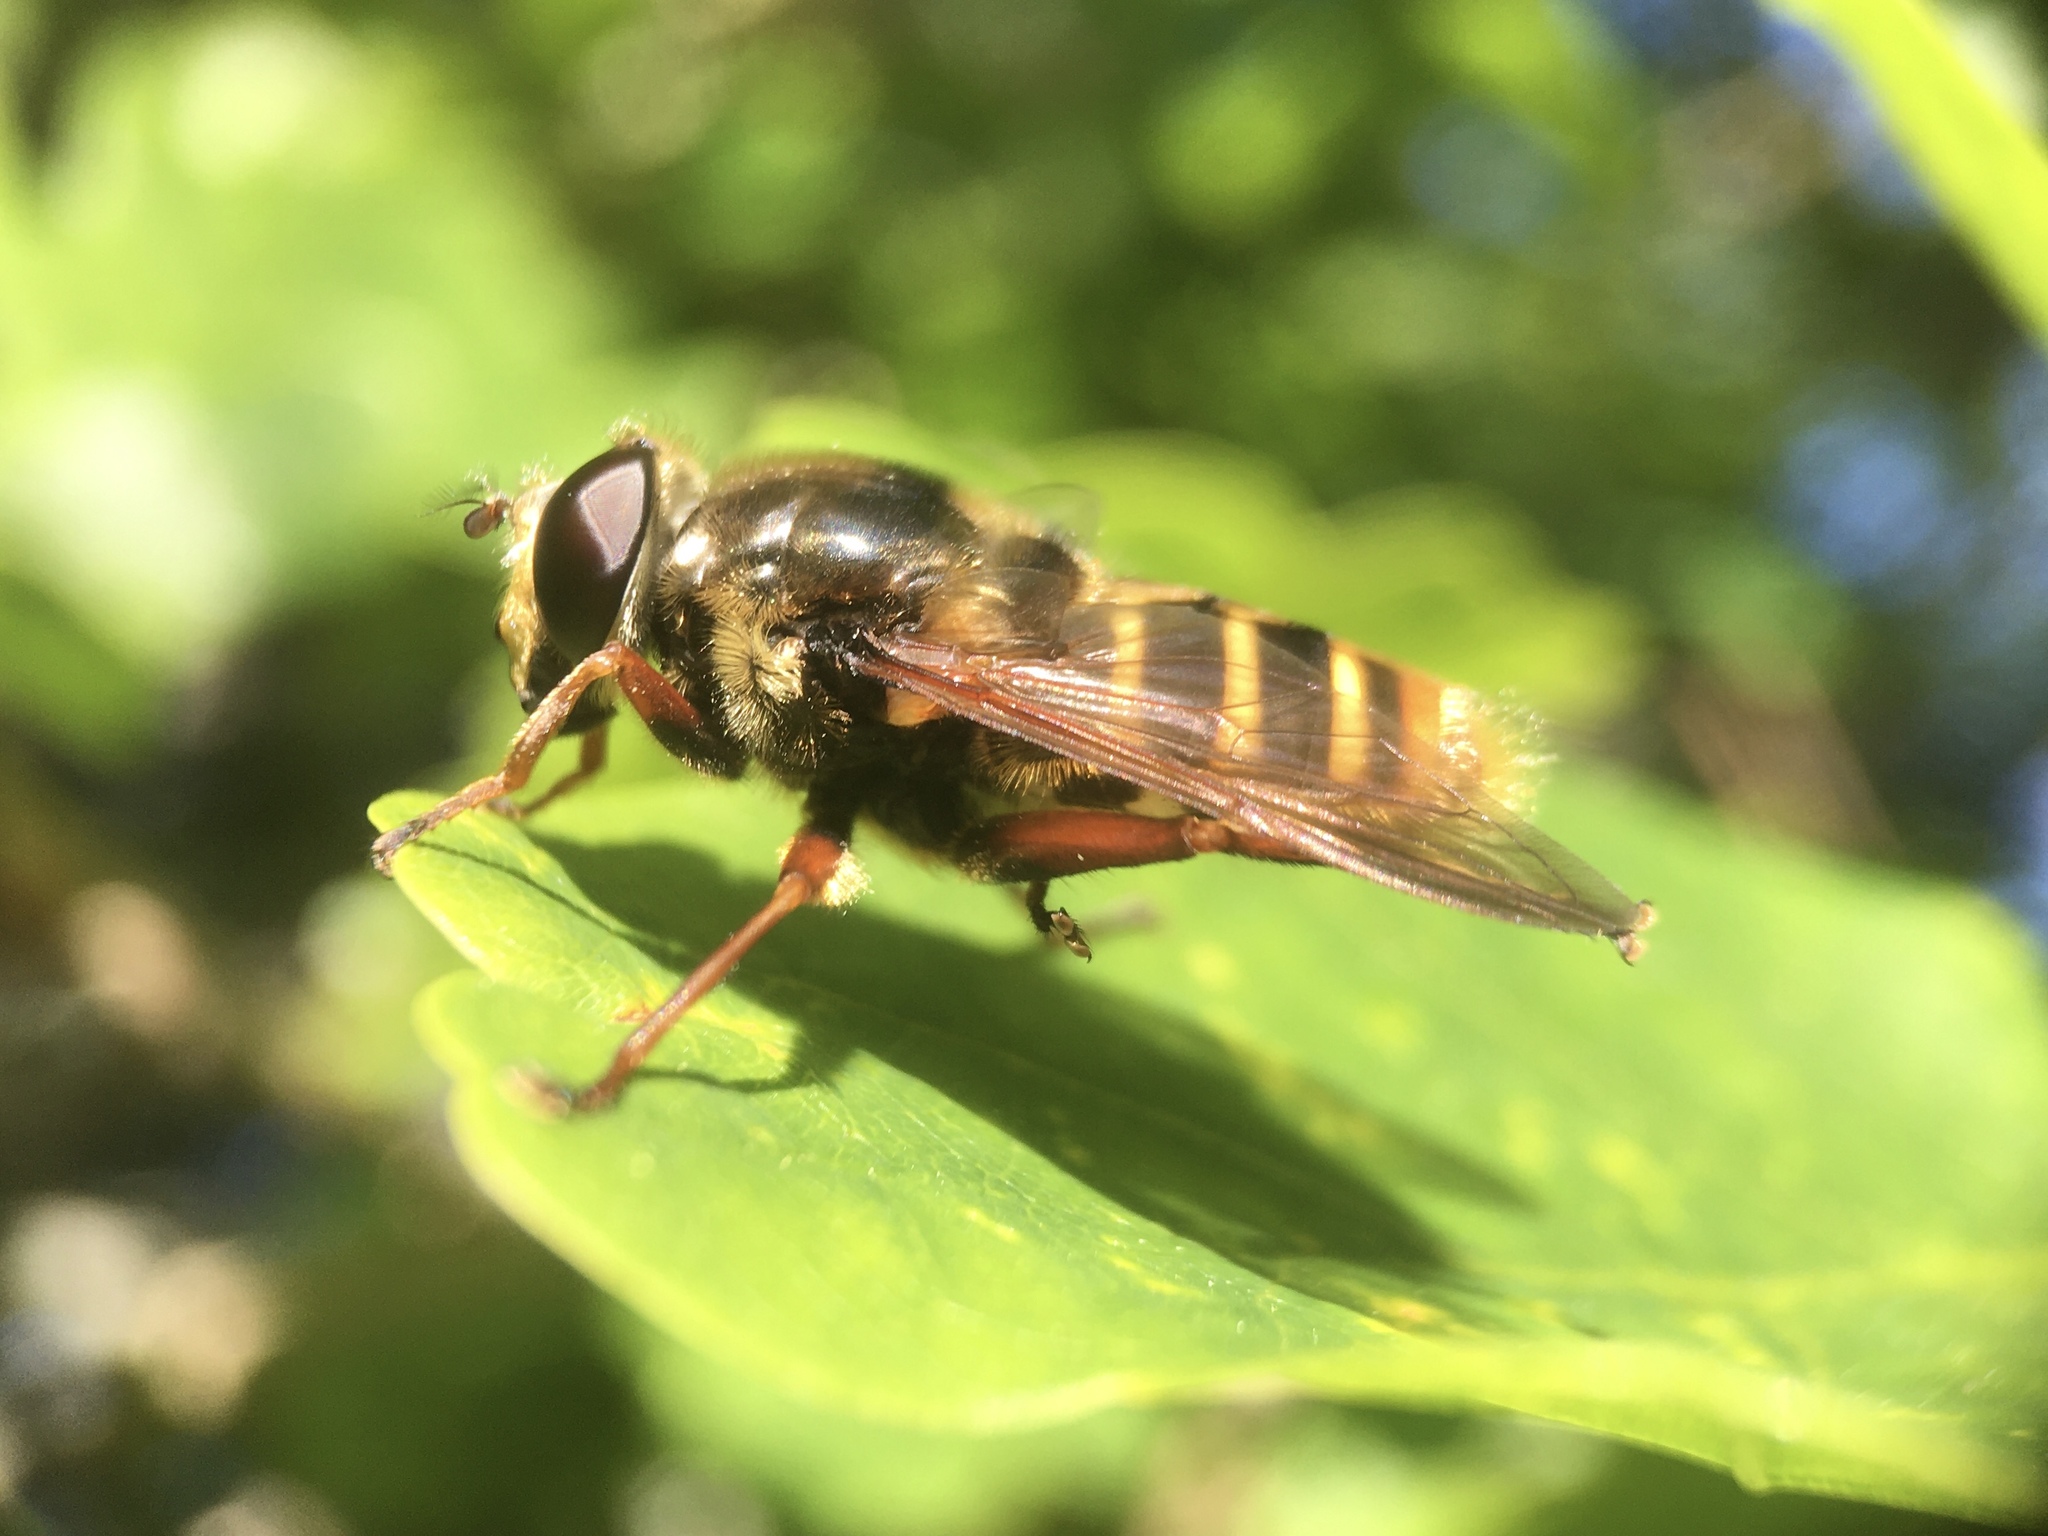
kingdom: Animalia
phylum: Arthropoda
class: Insecta
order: Diptera
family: Syrphidae
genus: Sericomyia
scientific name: Sericomyia silentis
